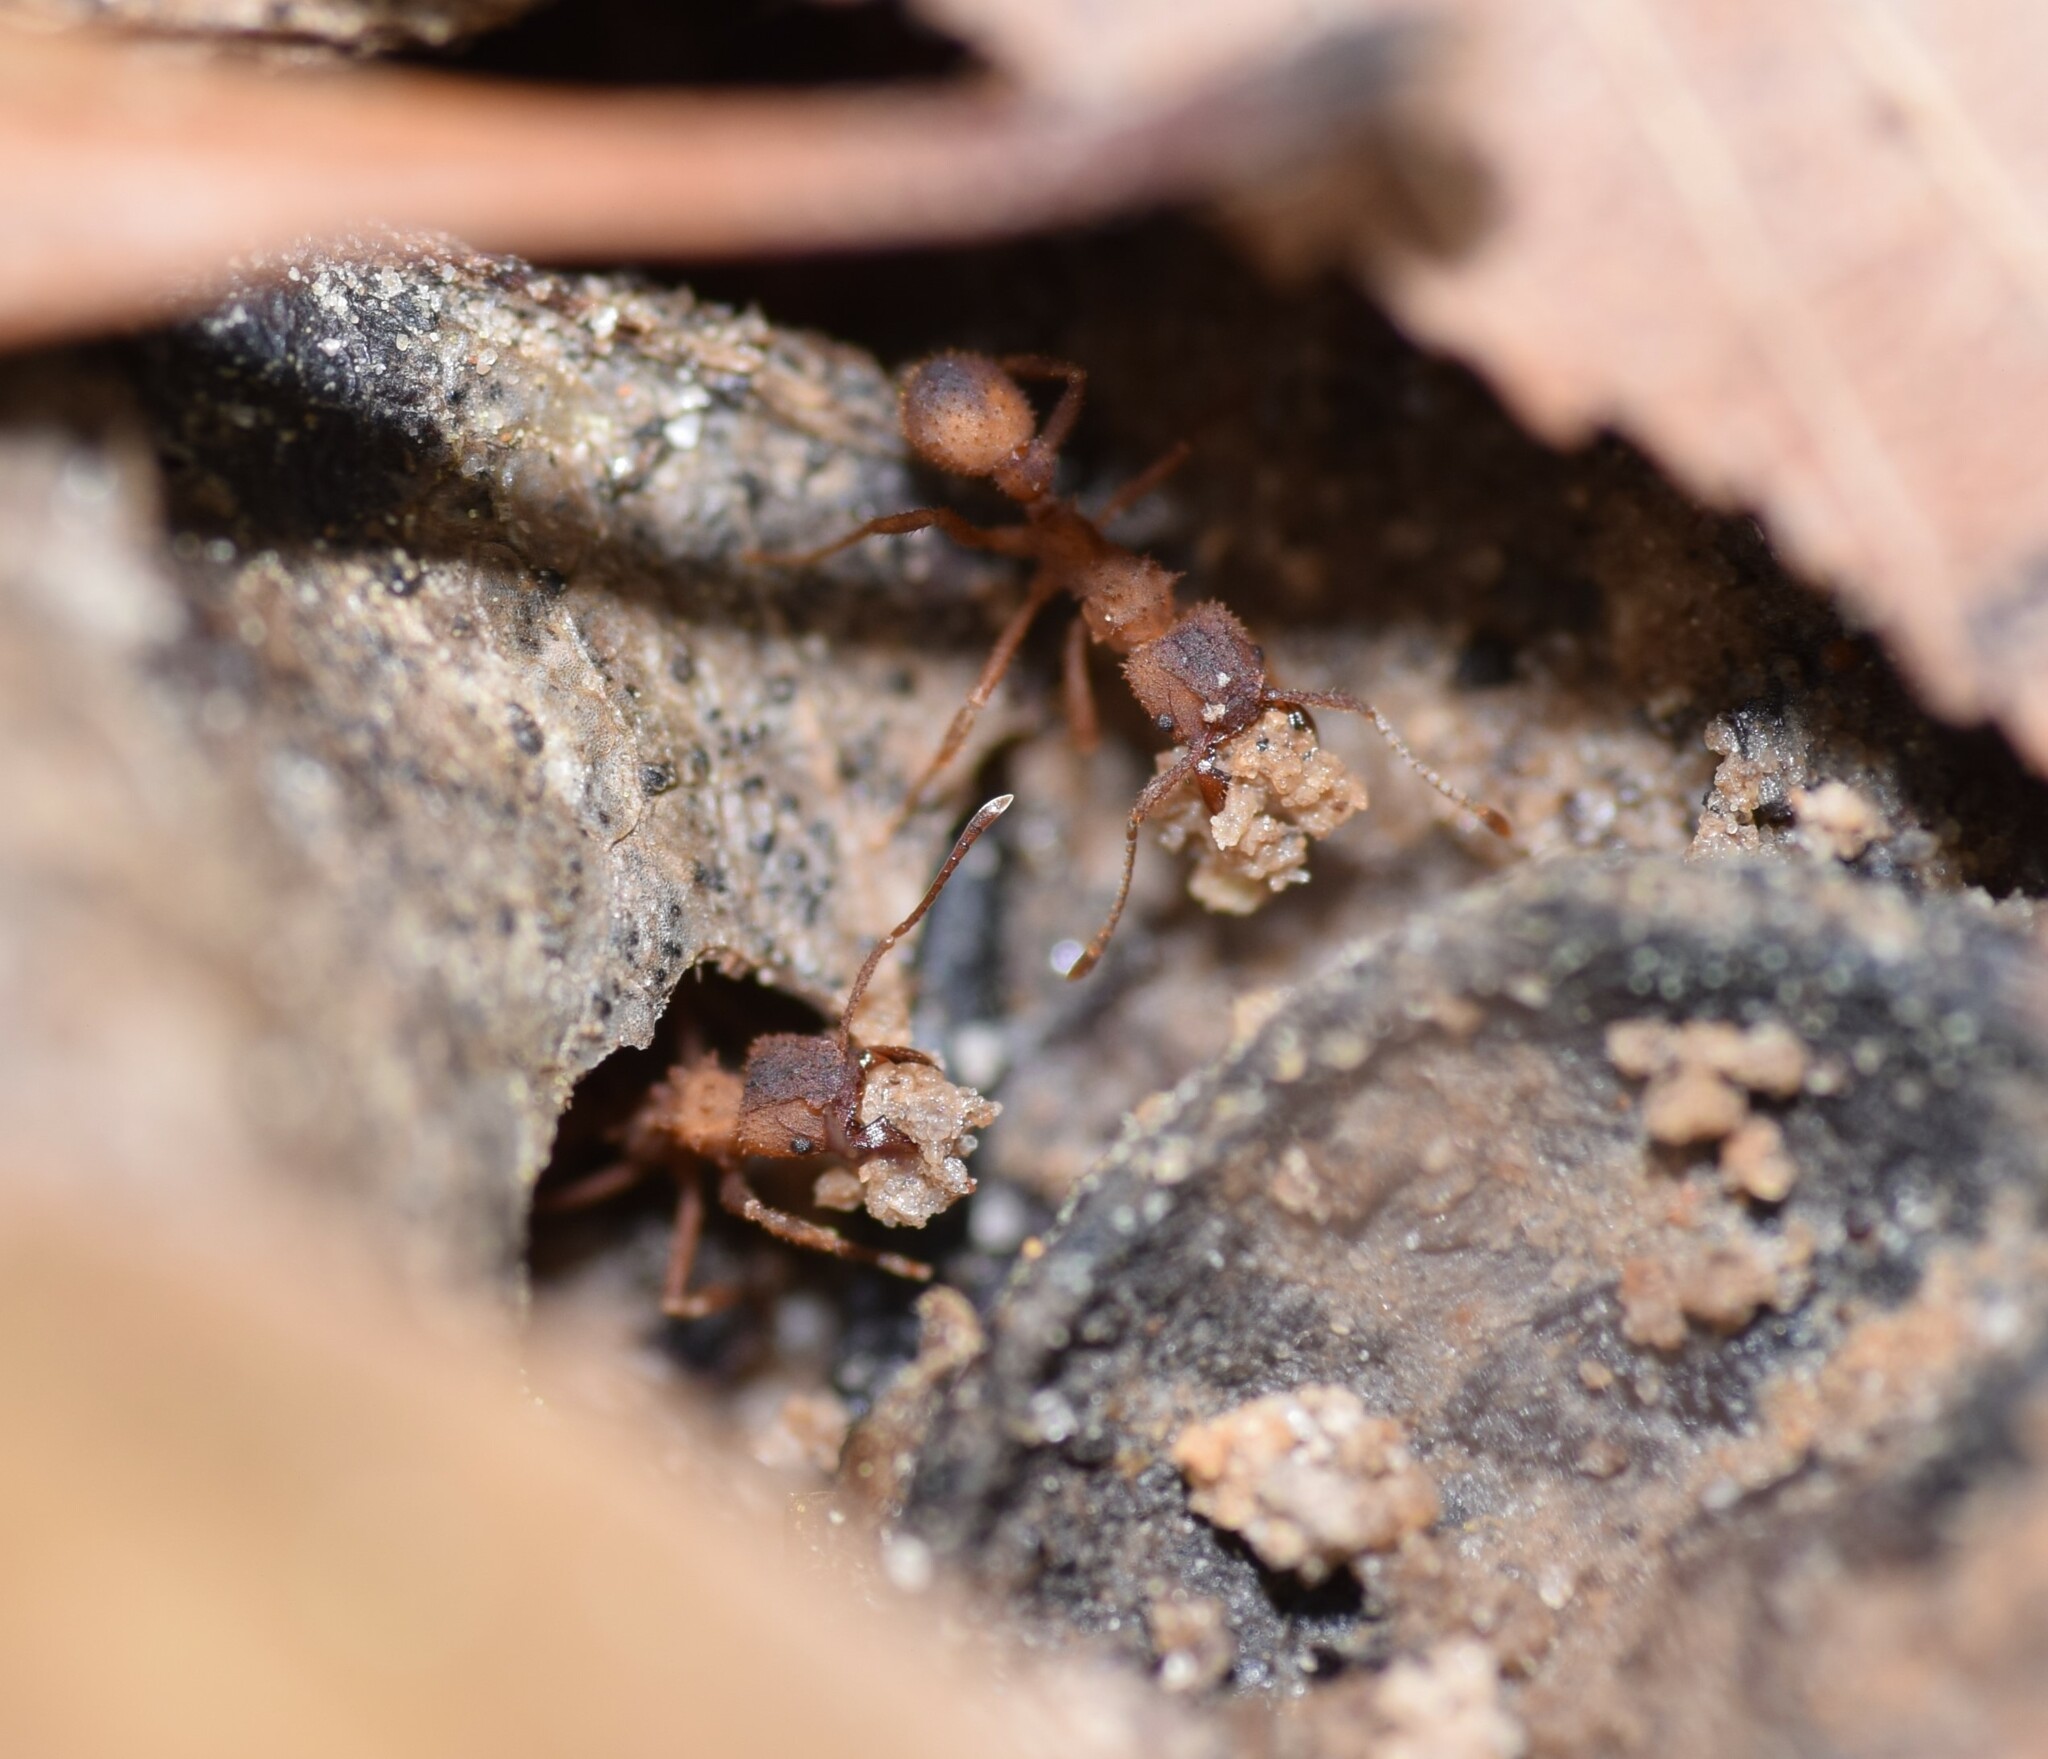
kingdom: Animalia
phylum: Arthropoda
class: Insecta
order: Hymenoptera
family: Formicidae
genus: Trachymyrmex
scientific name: Trachymyrmex septentrionalis
